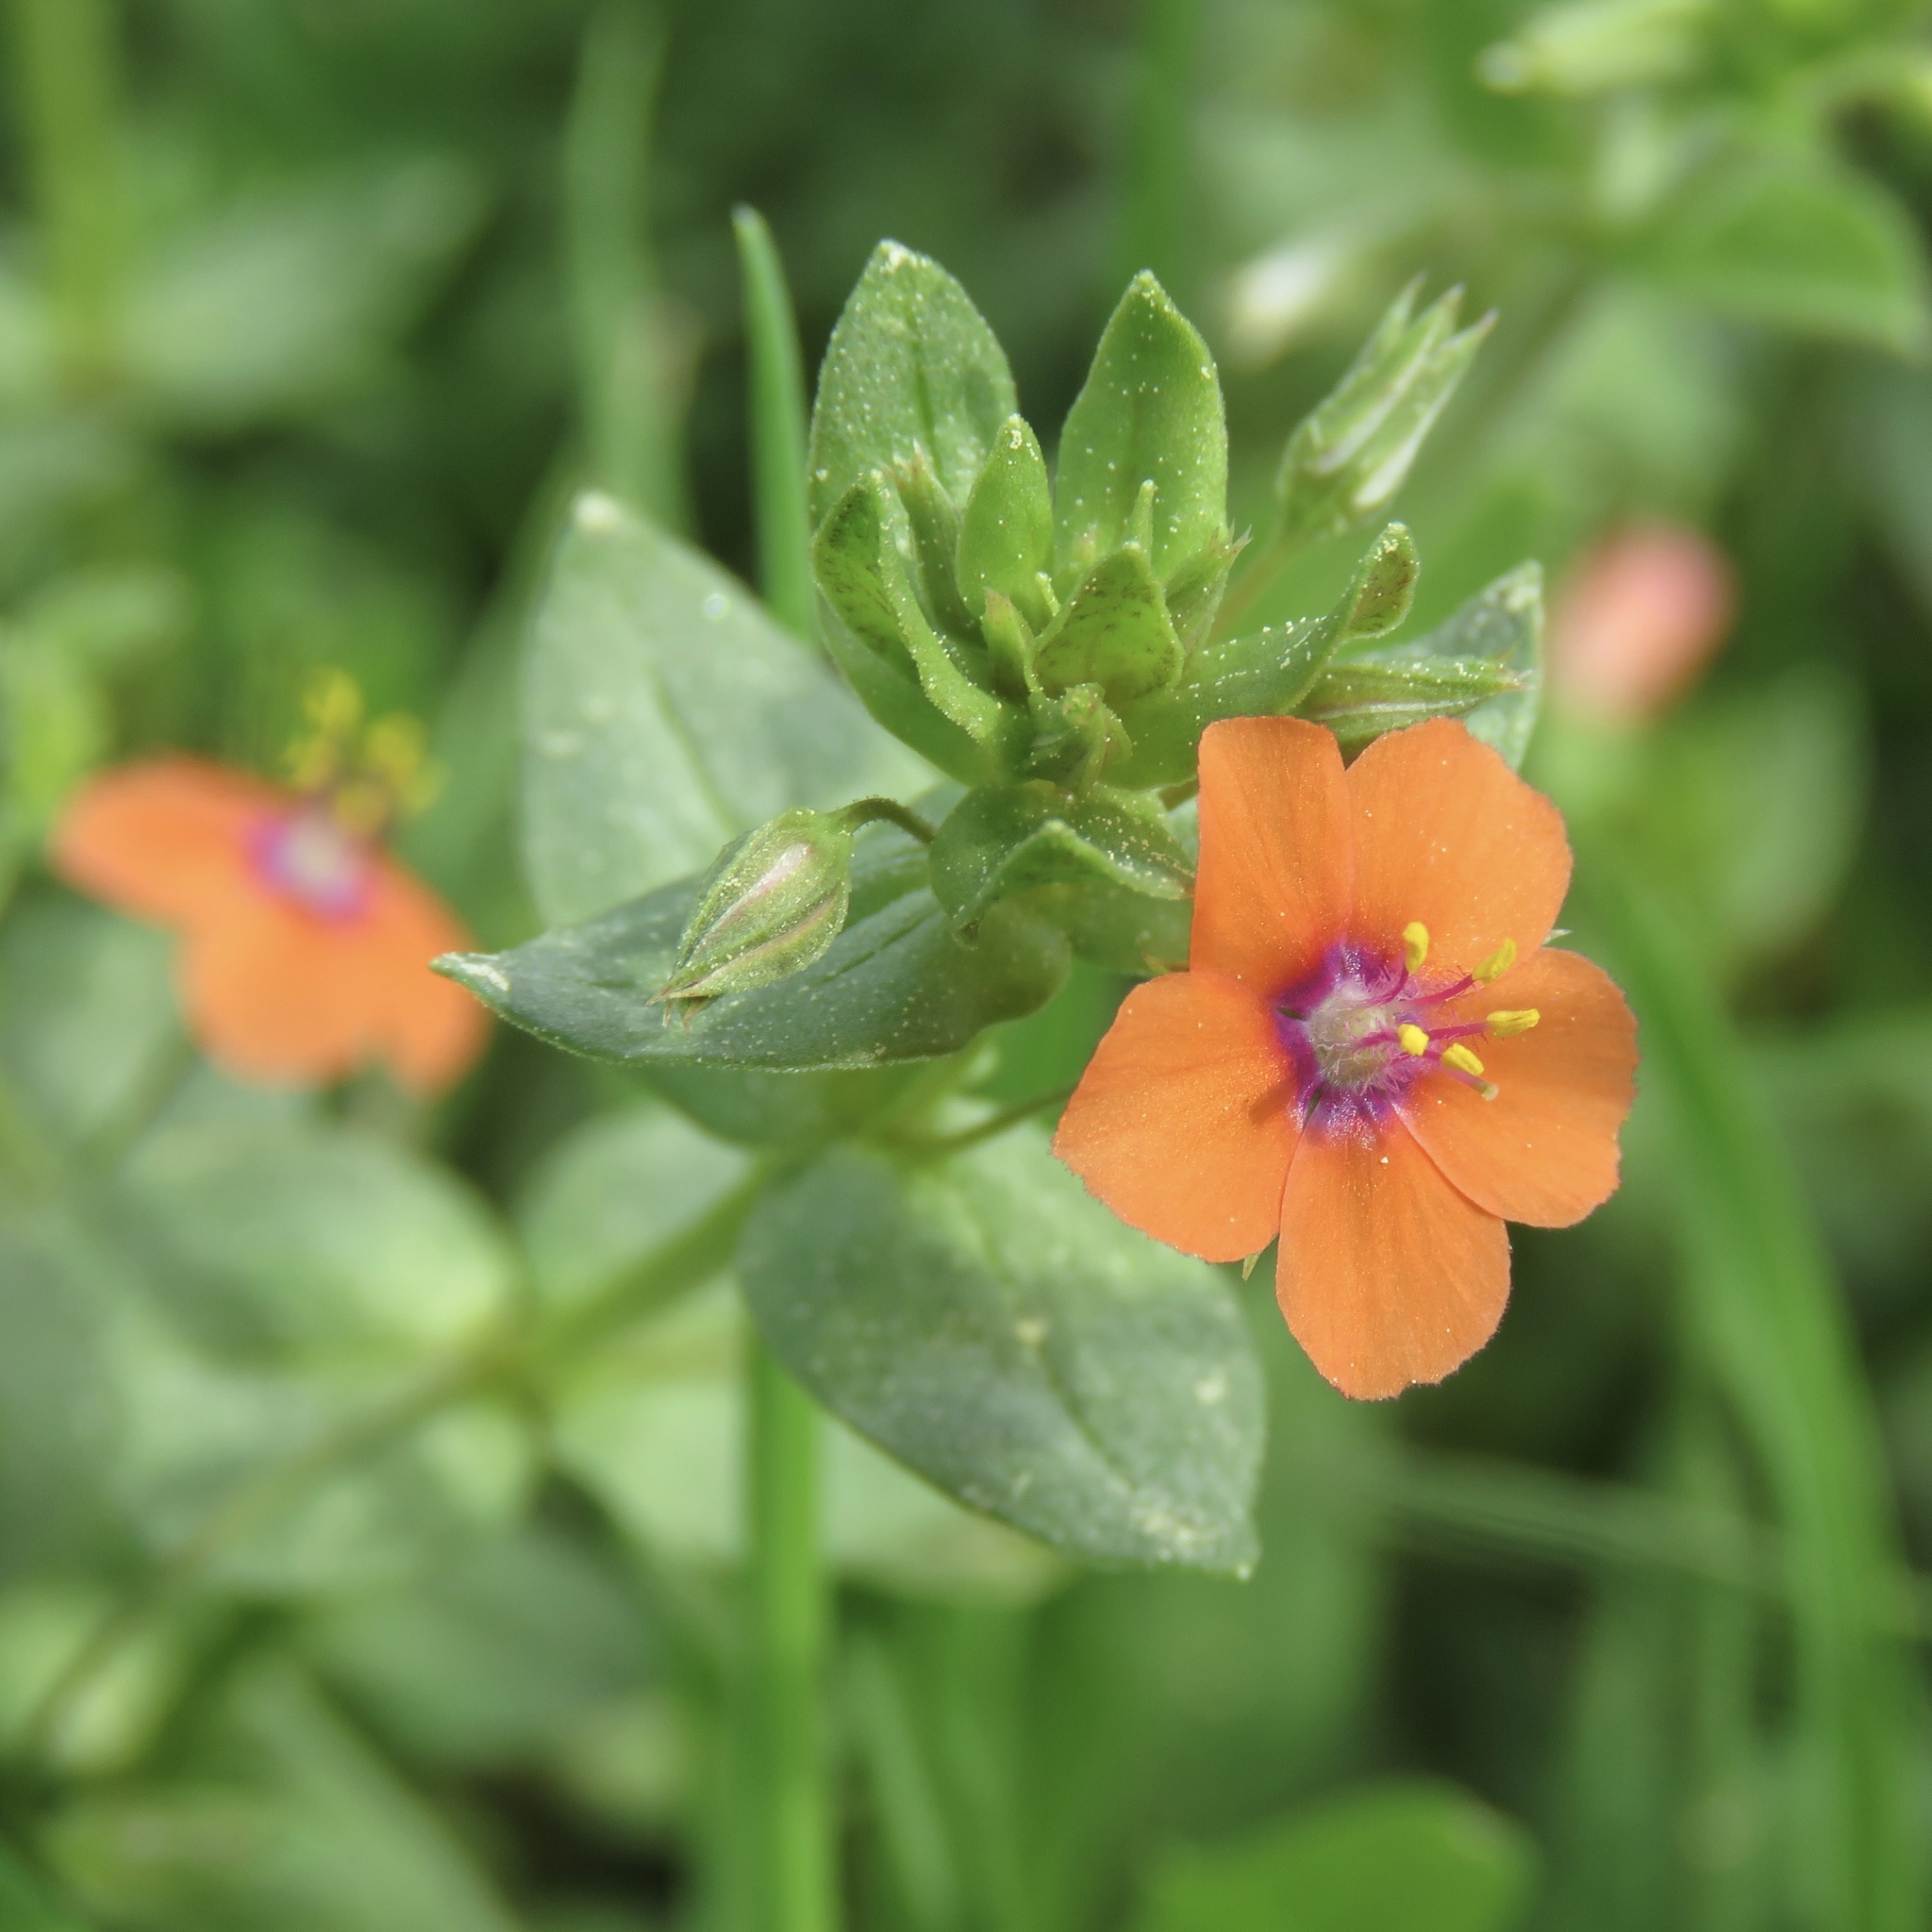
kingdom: Plantae
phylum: Tracheophyta
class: Magnoliopsida
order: Ericales
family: Primulaceae
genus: Lysimachia
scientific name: Lysimachia arvensis
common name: Scarlet pimpernel
